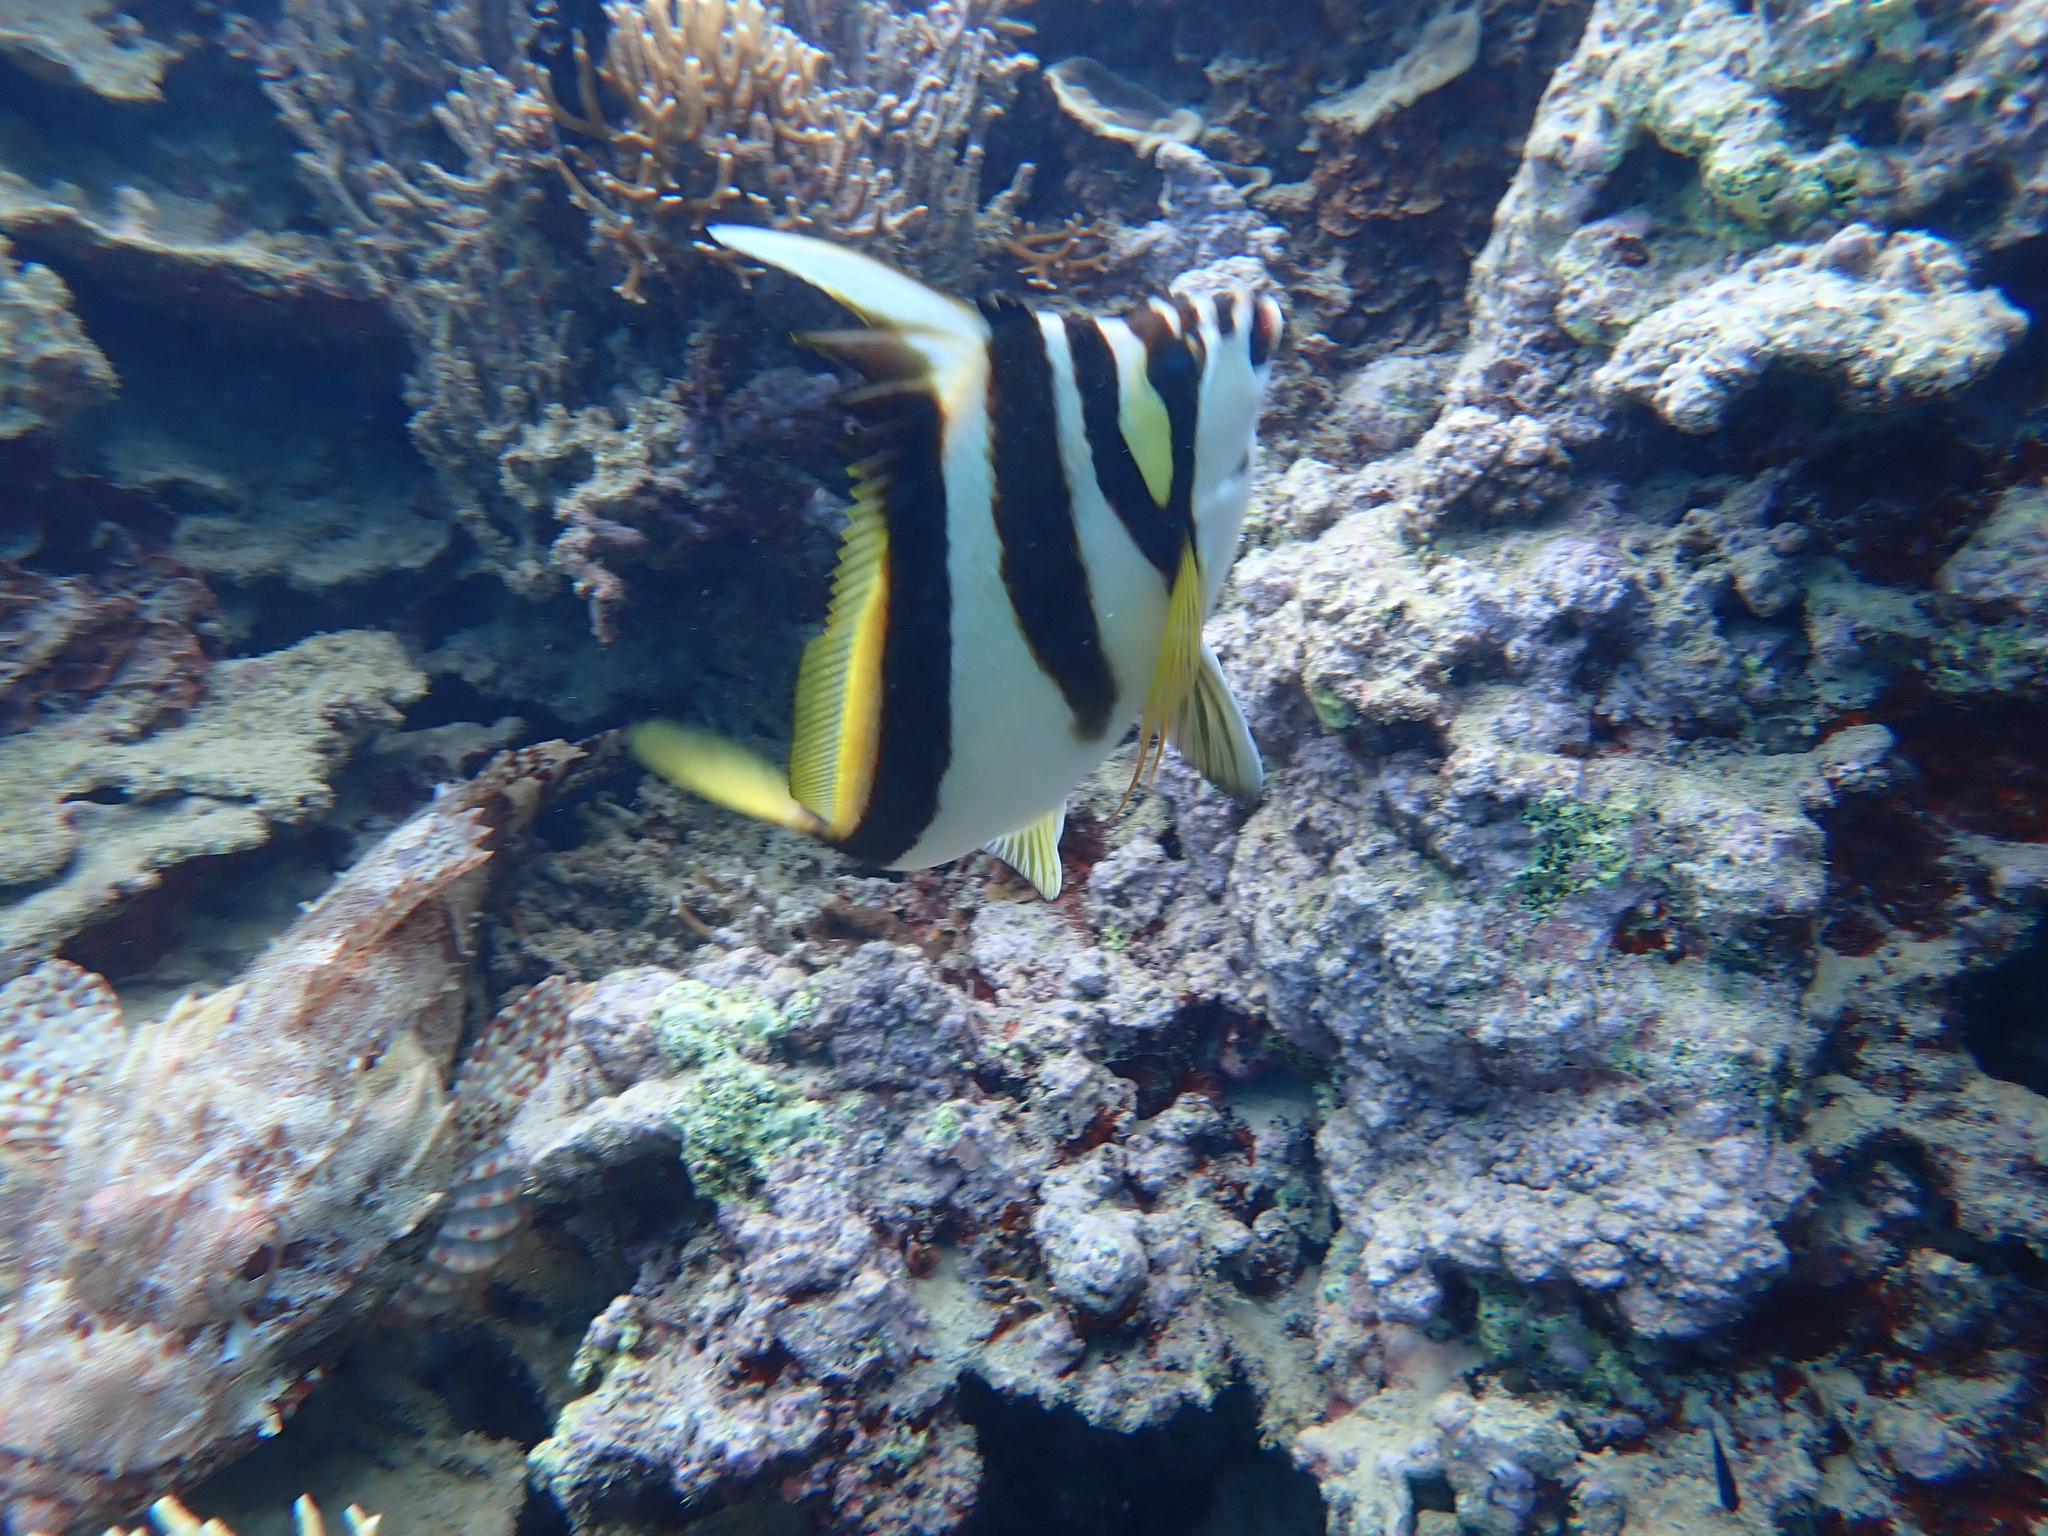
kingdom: Animalia
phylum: Chordata
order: Perciformes
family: Cheilodactylidae
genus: Cheilodactylus
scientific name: Cheilodactylus vestitus
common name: Crested morwong
